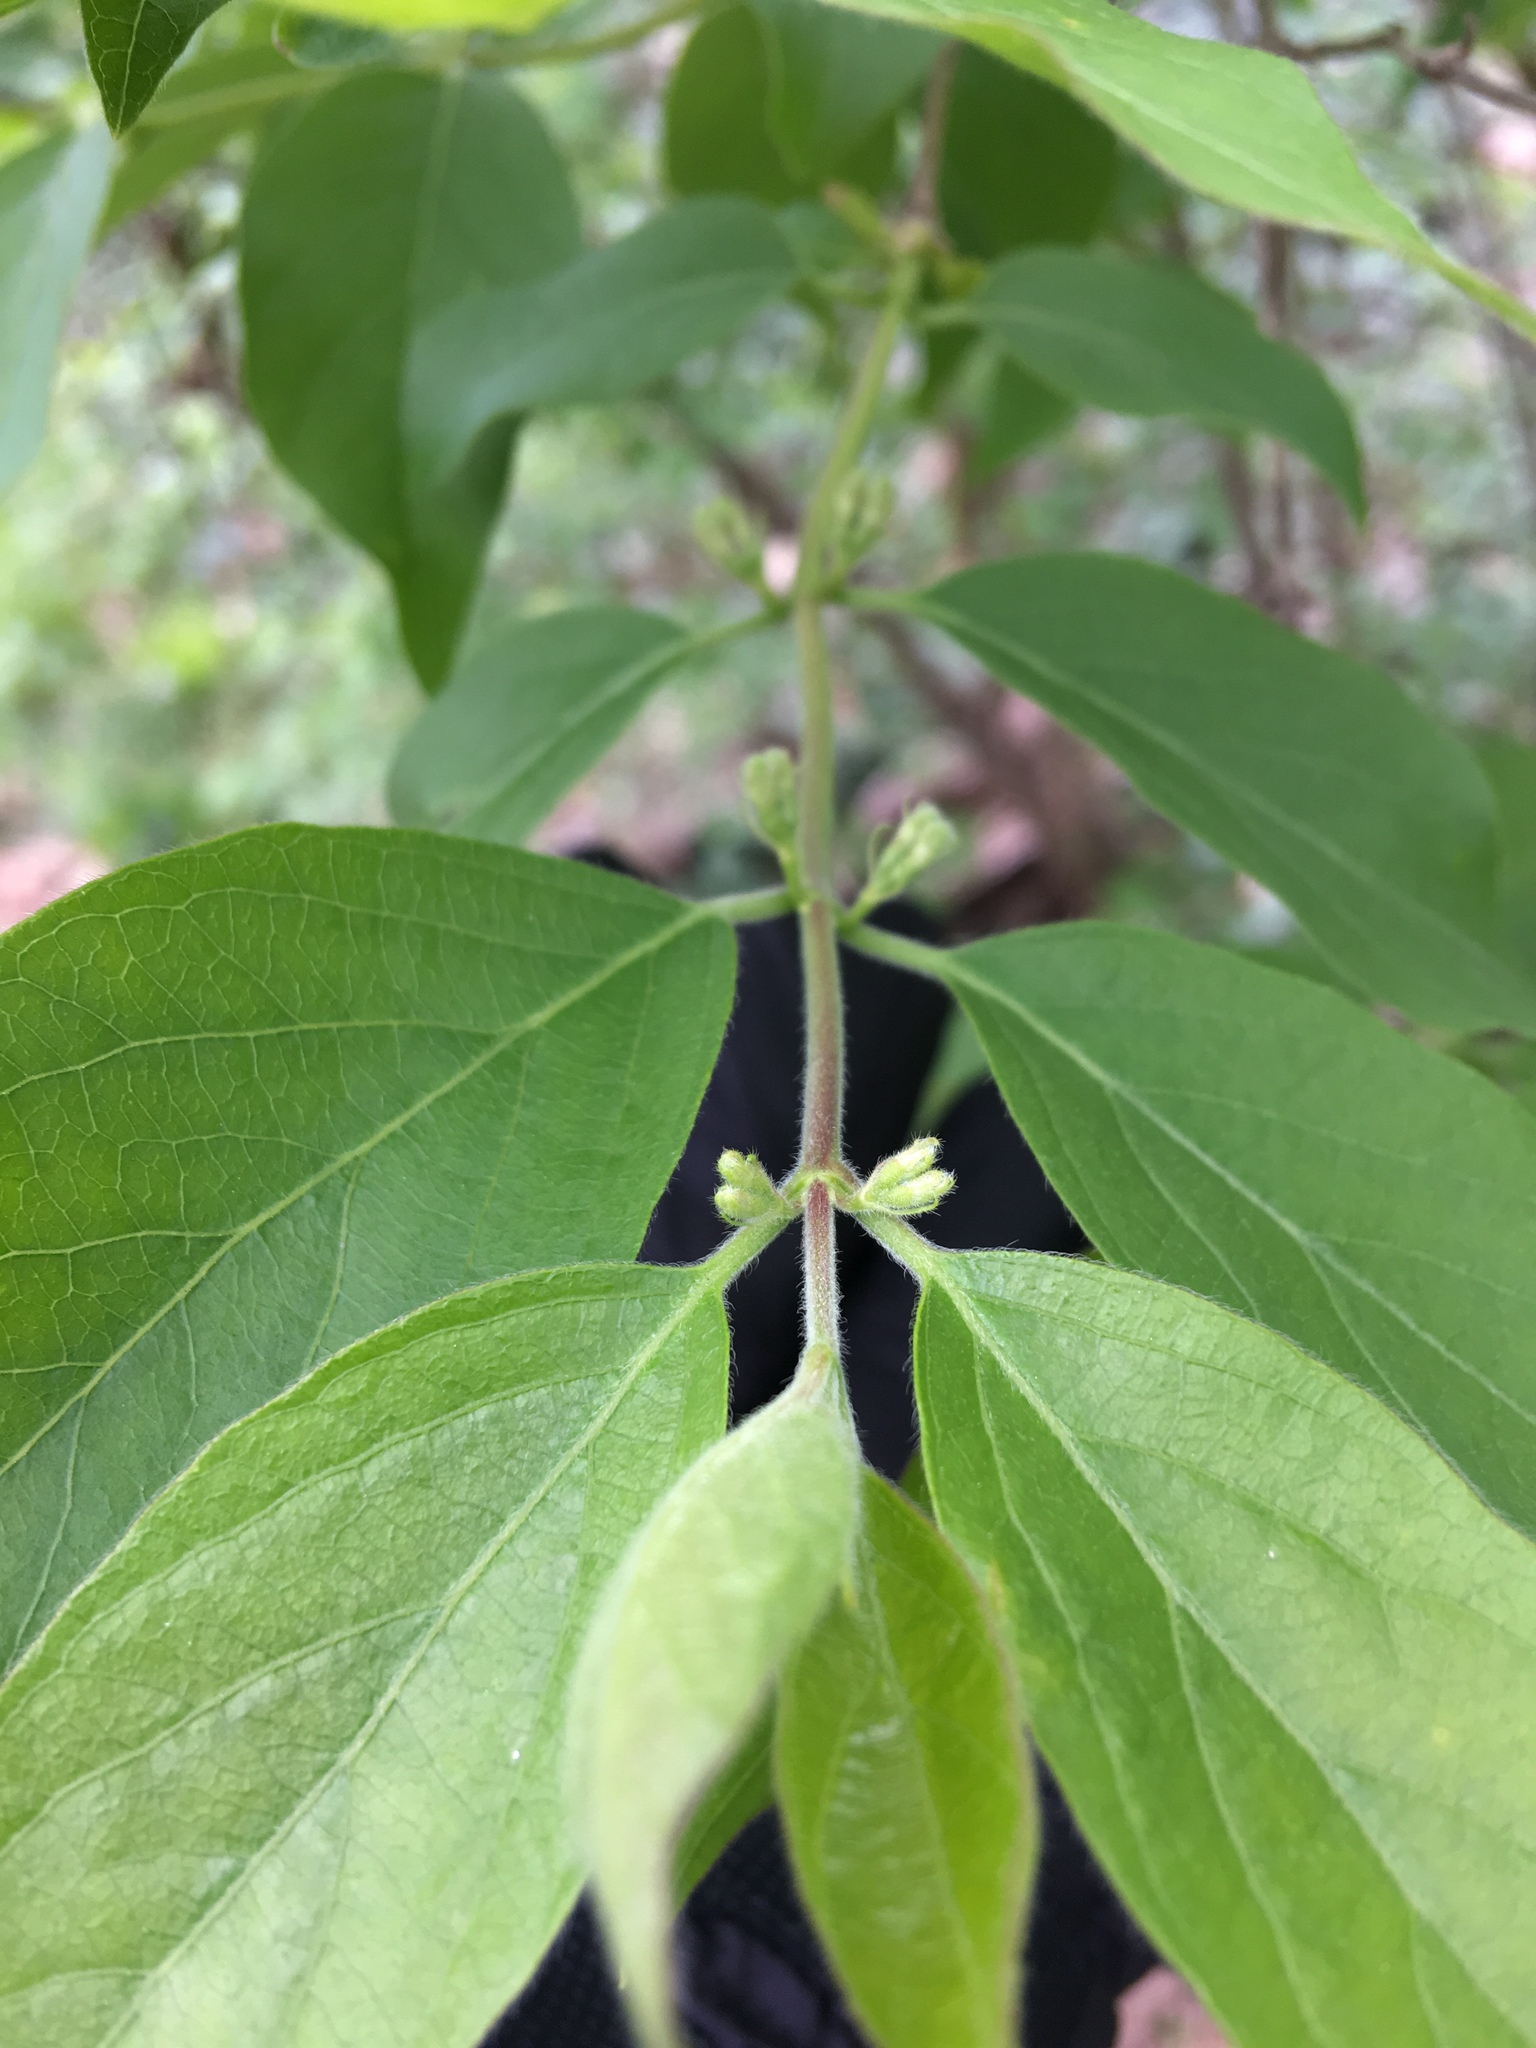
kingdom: Plantae
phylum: Tracheophyta
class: Magnoliopsida
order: Dipsacales
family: Caprifoliaceae
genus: Lonicera
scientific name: Lonicera maackii
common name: Amur honeysuckle
